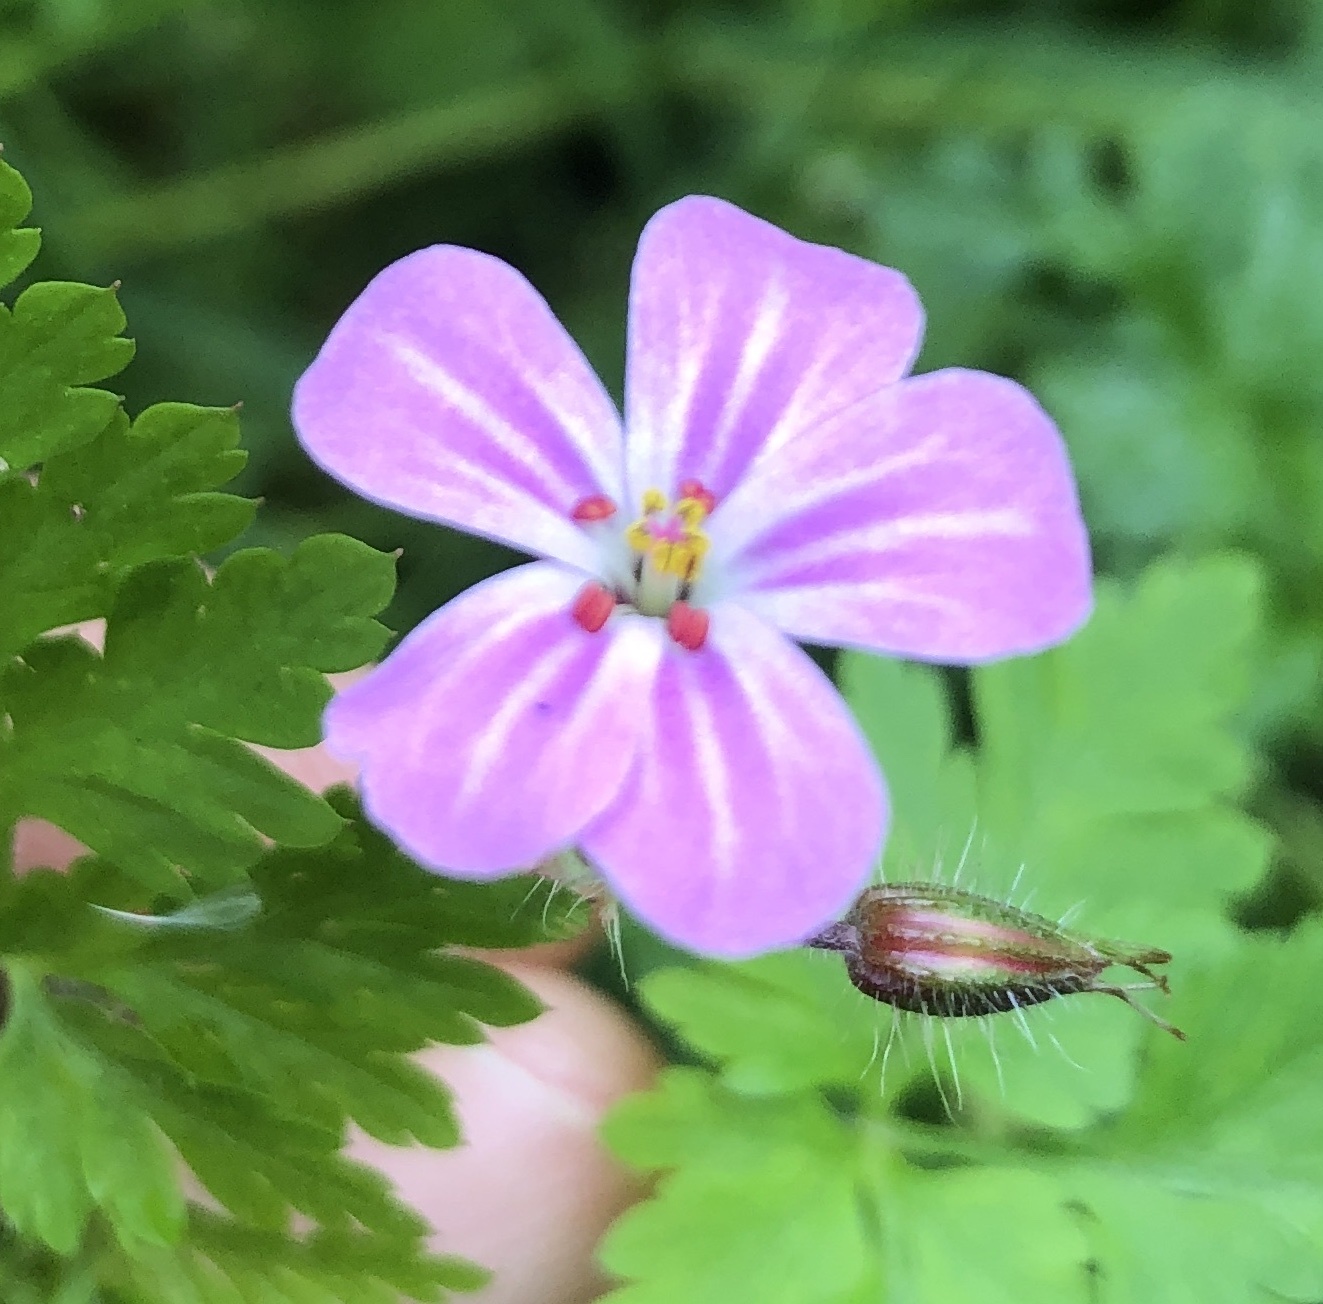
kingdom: Plantae
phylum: Tracheophyta
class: Magnoliopsida
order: Geraniales
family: Geraniaceae
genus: Geranium
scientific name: Geranium robertianum
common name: Herb-robert
